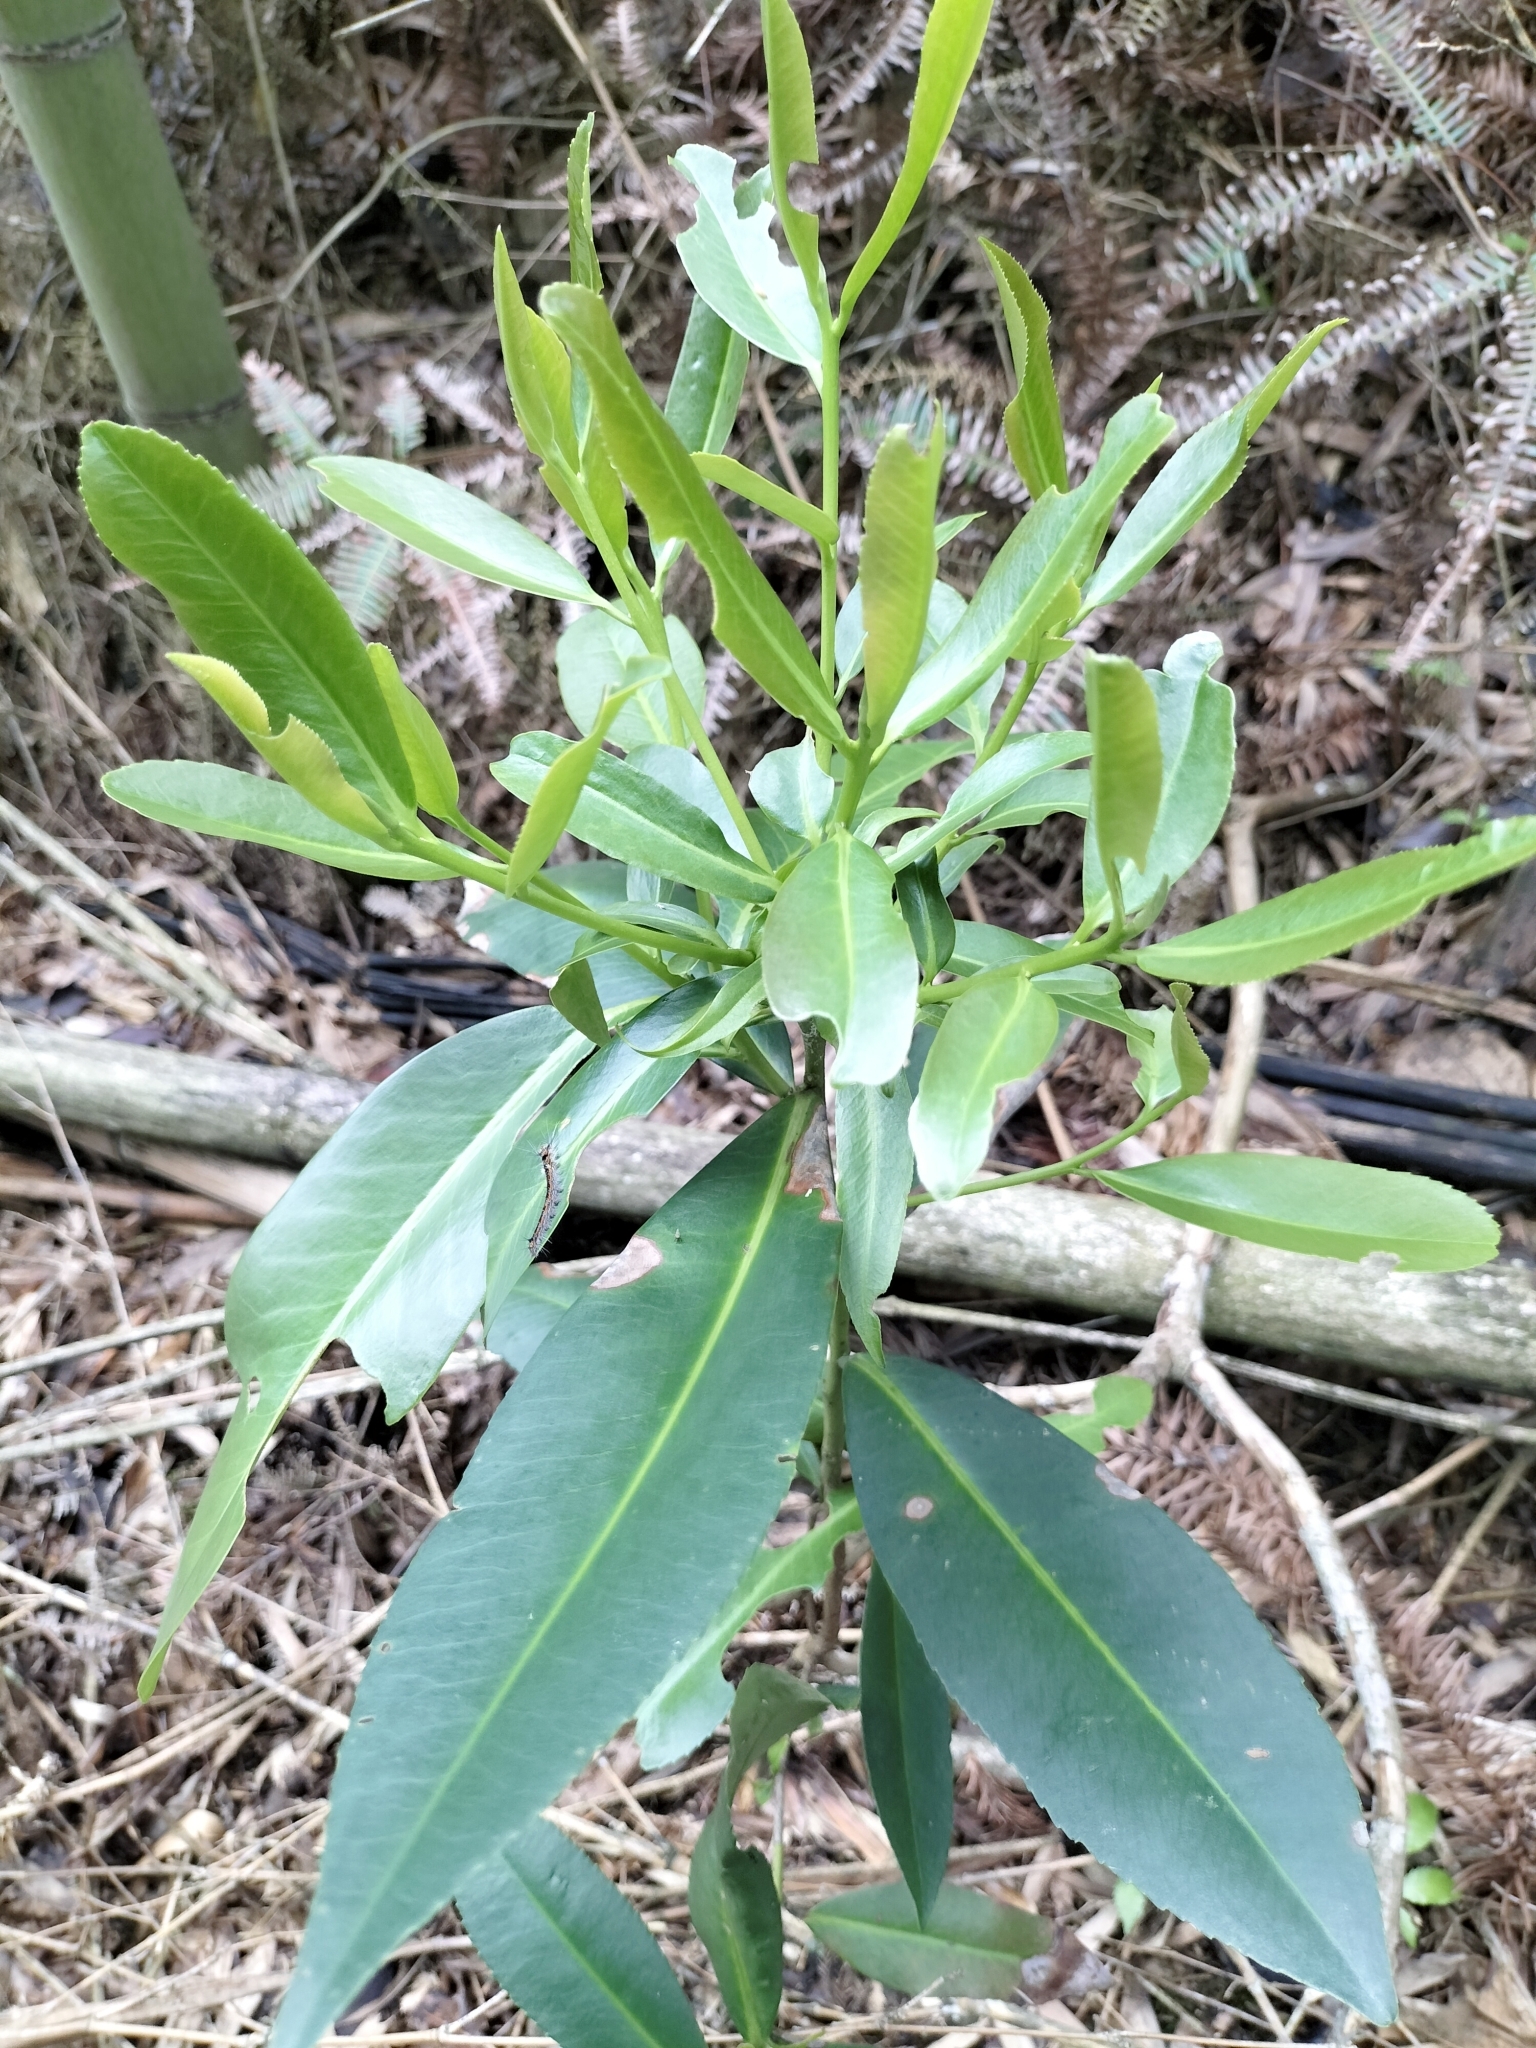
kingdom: Plantae
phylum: Tracheophyta
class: Magnoliopsida
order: Ericales
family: Theaceae
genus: Polyspora
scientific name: Polyspora axillaris
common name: Fried egg tree
